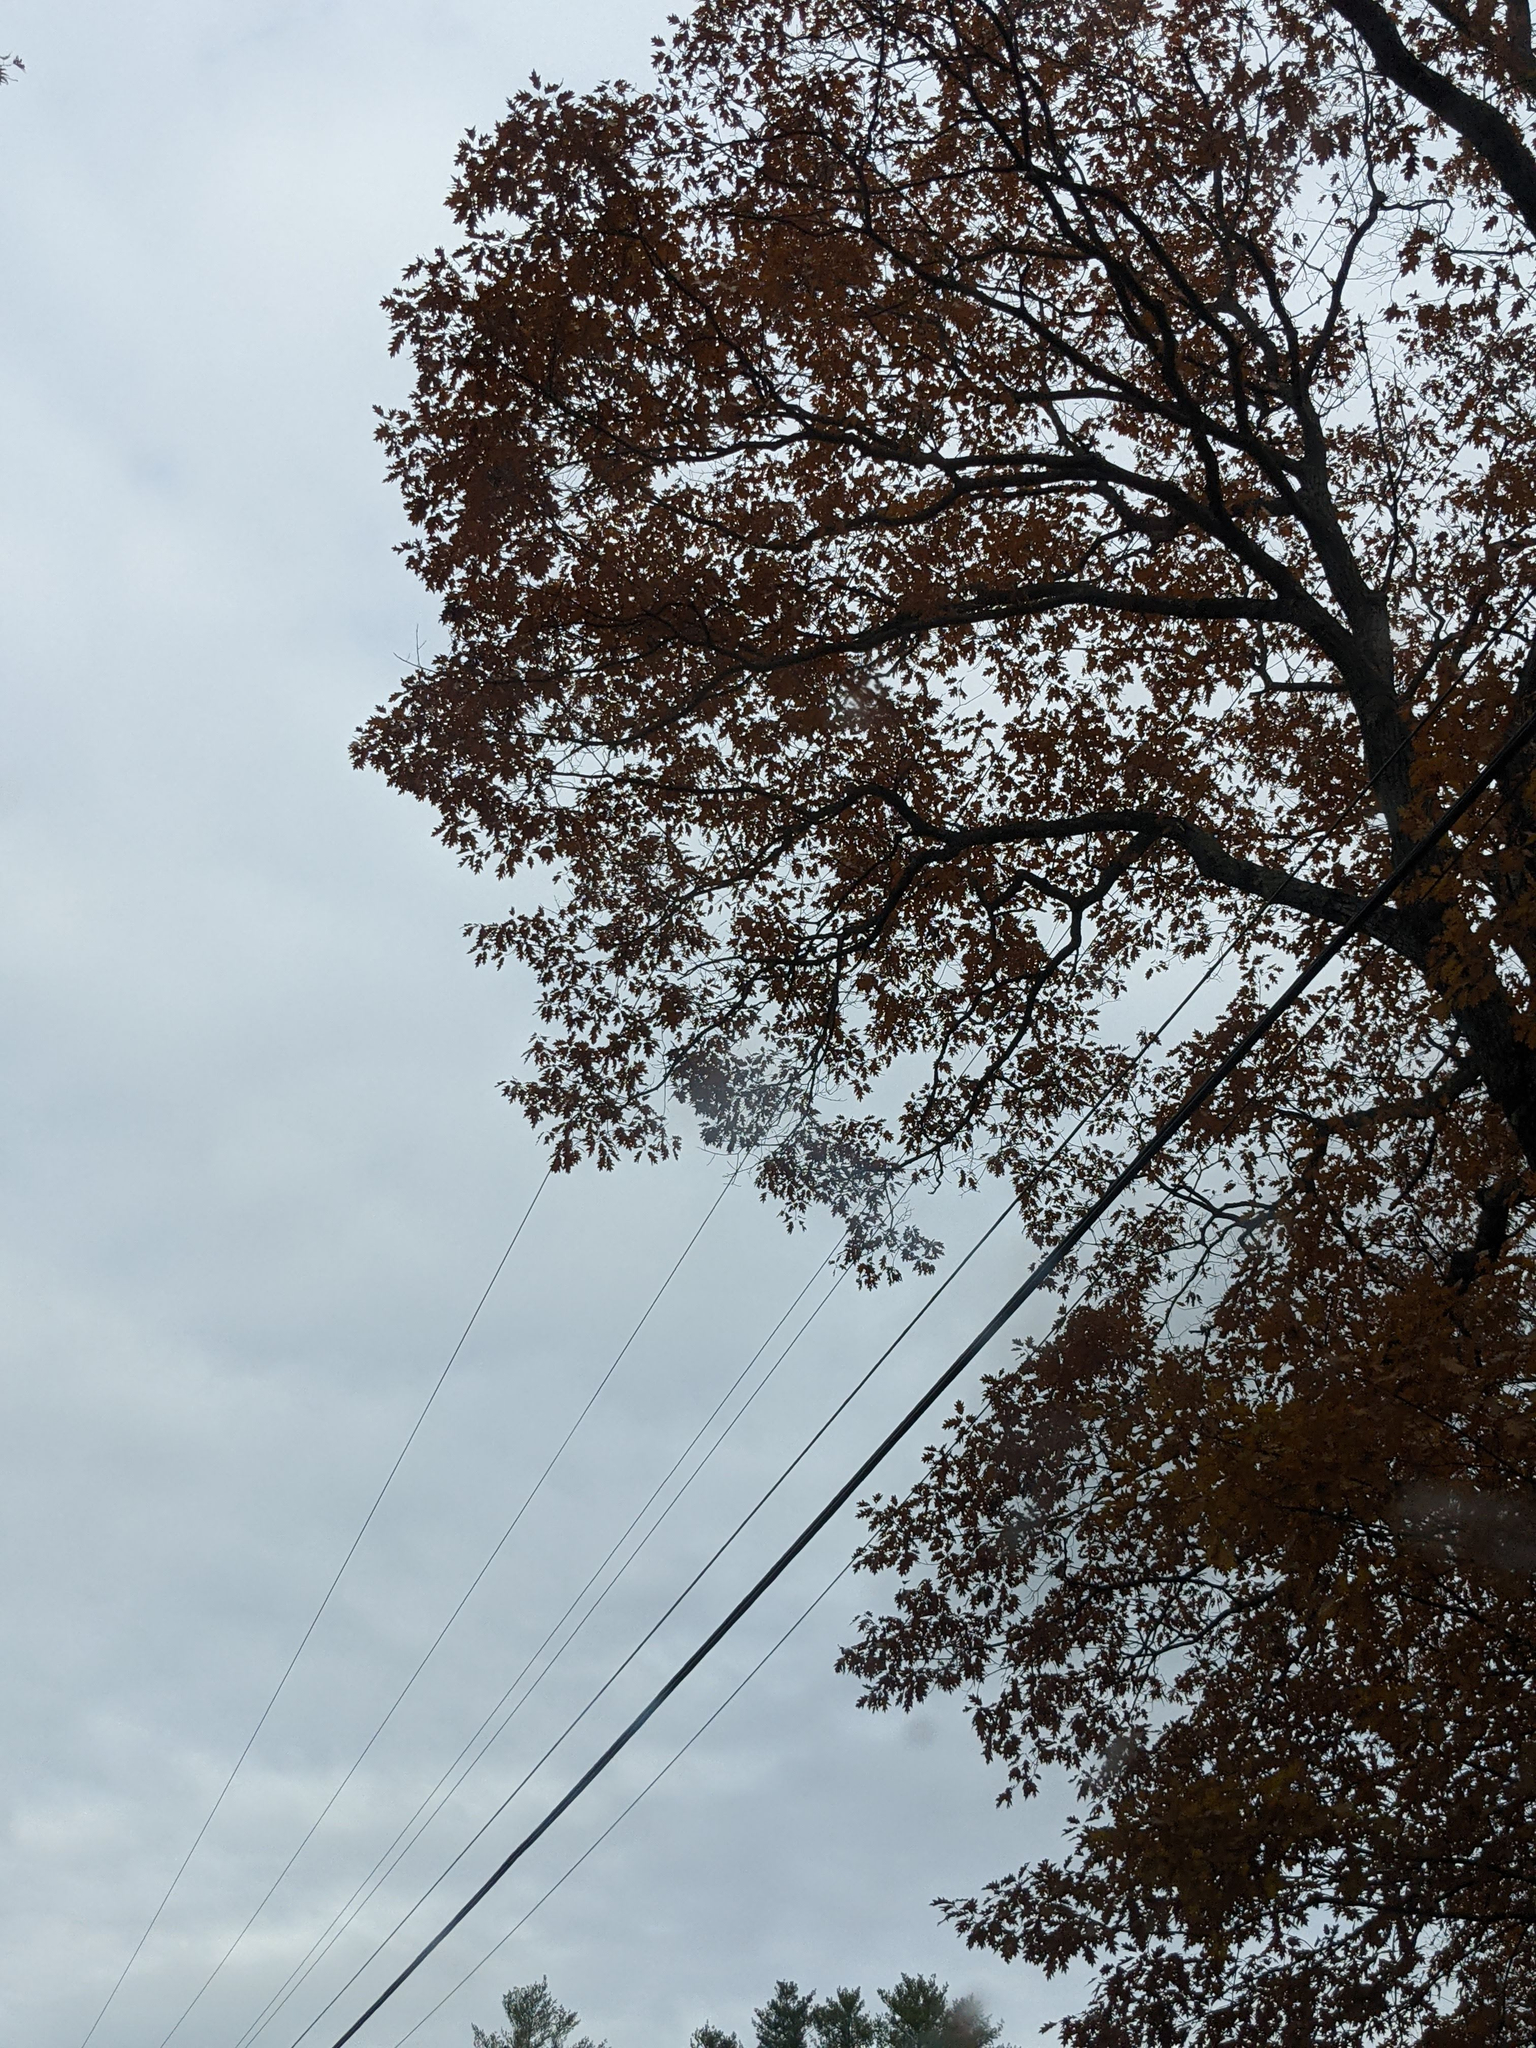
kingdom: Plantae
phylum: Tracheophyta
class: Magnoliopsida
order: Fagales
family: Fagaceae
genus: Quercus
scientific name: Quercus rubra
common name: Red oak
